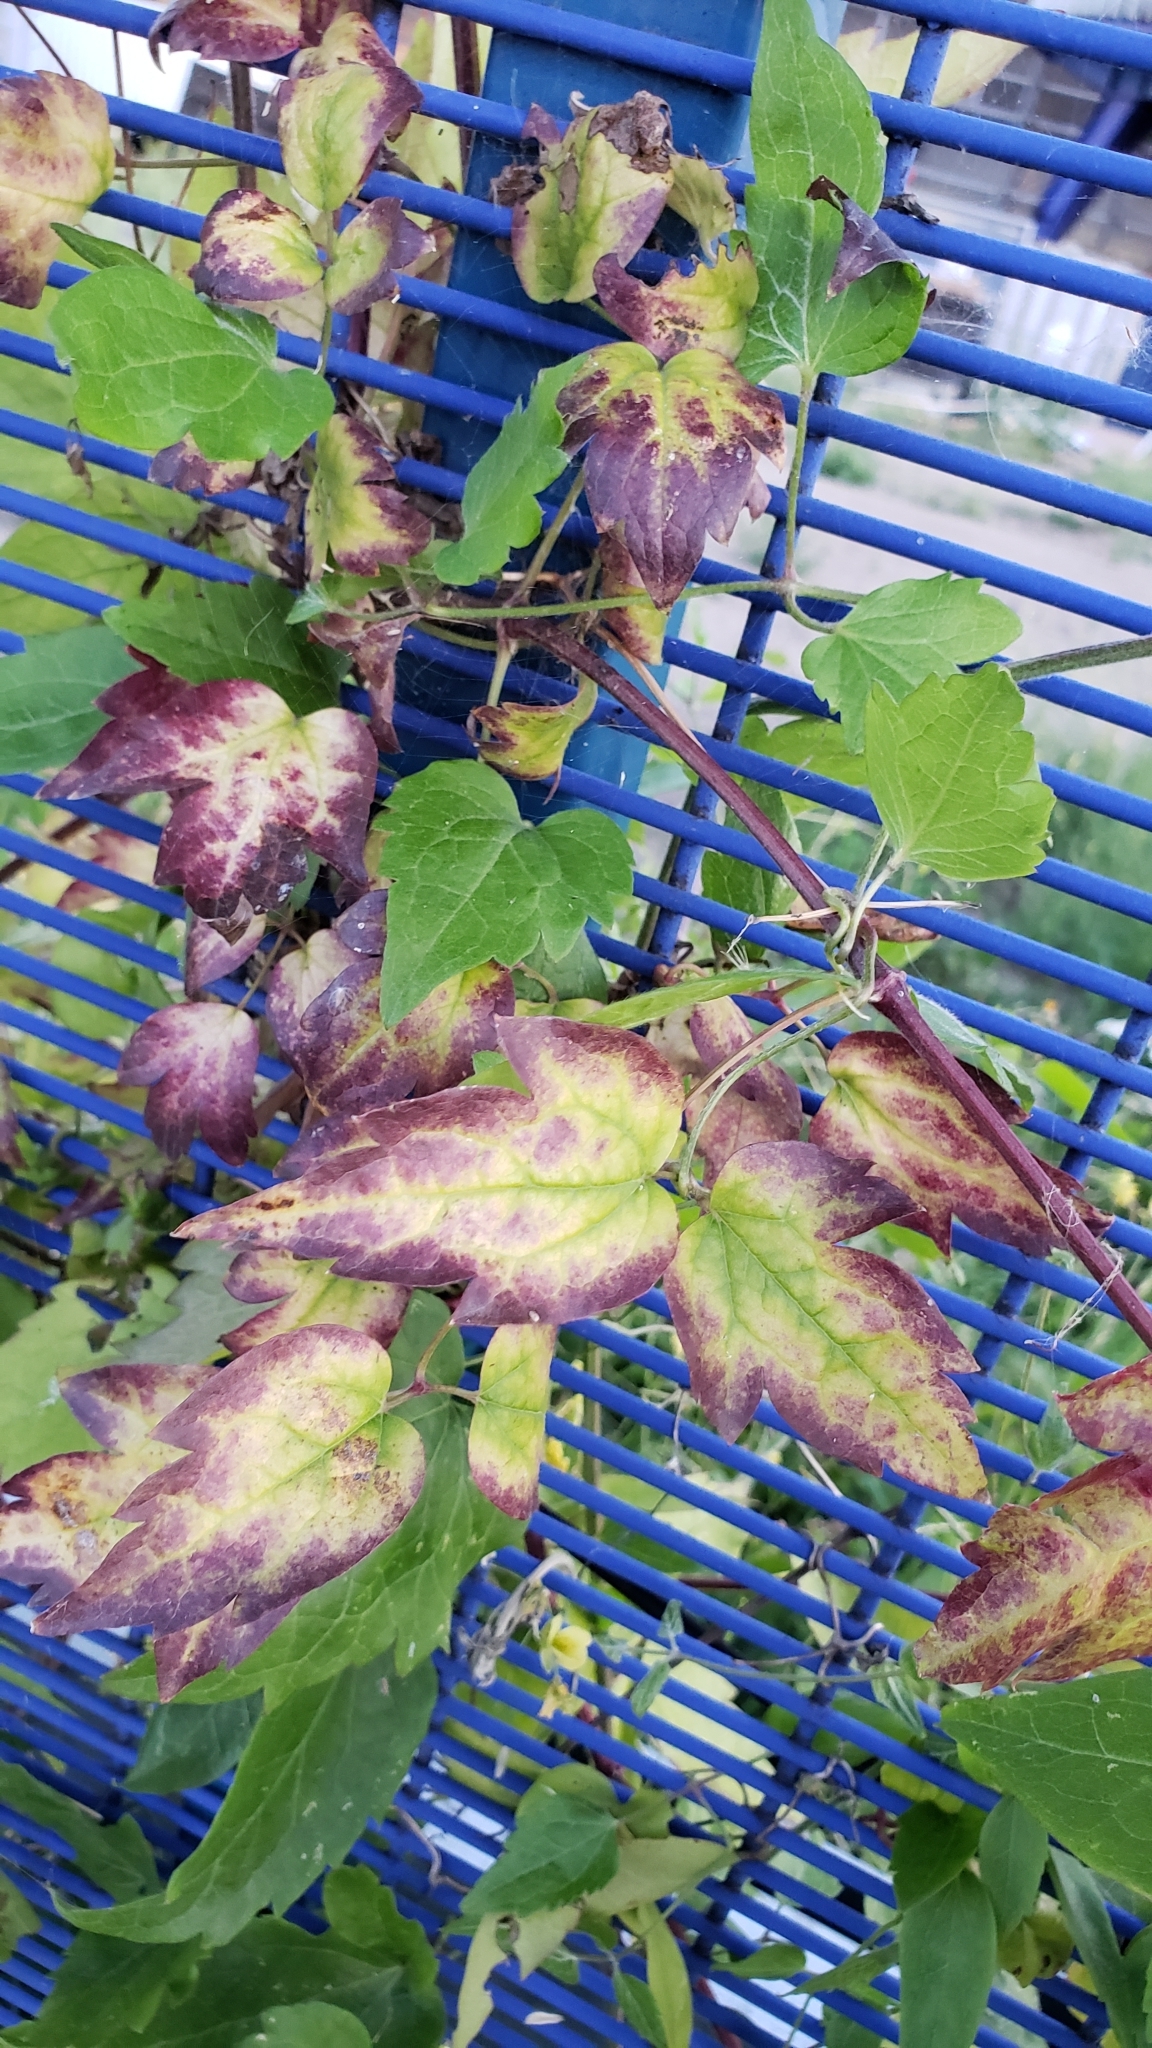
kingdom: Plantae
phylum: Tracheophyta
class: Magnoliopsida
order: Ranunculales
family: Ranunculaceae
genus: Clematis
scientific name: Clematis vitalba
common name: Evergreen clematis
